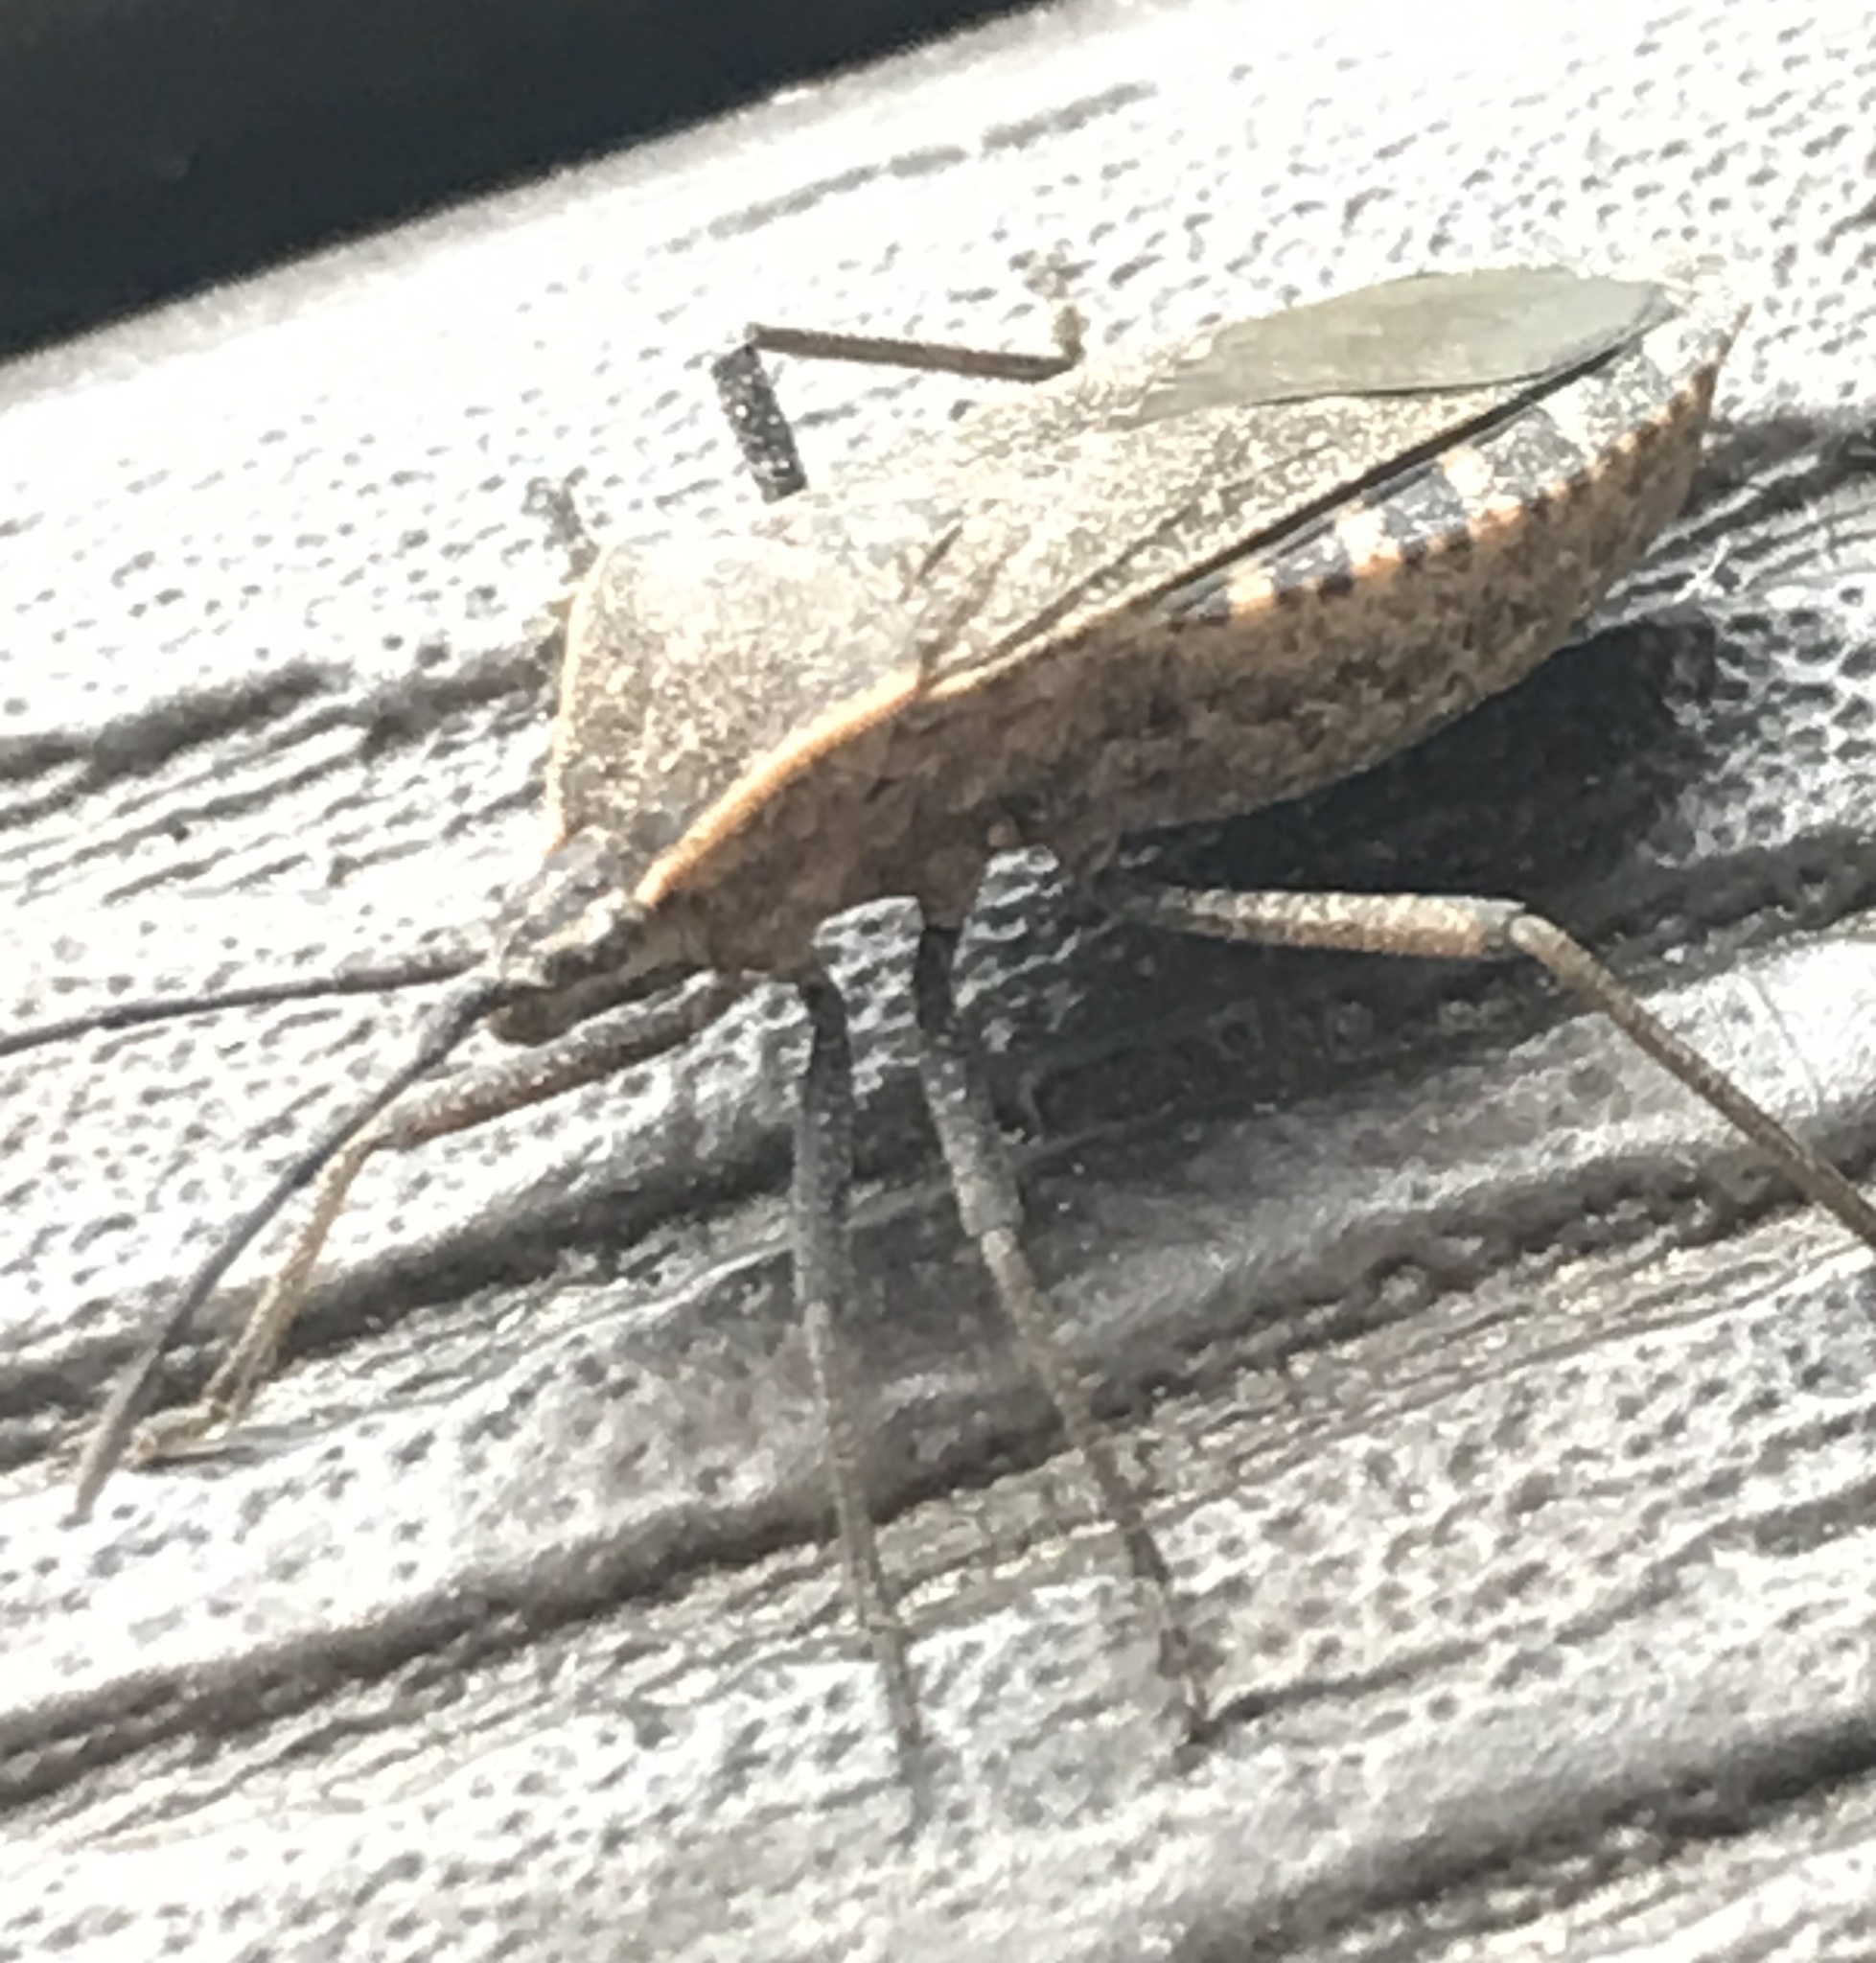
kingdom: Animalia
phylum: Arthropoda
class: Insecta
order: Hemiptera
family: Coreidae
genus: Anasa
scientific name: Anasa tristis
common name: Squash bug
